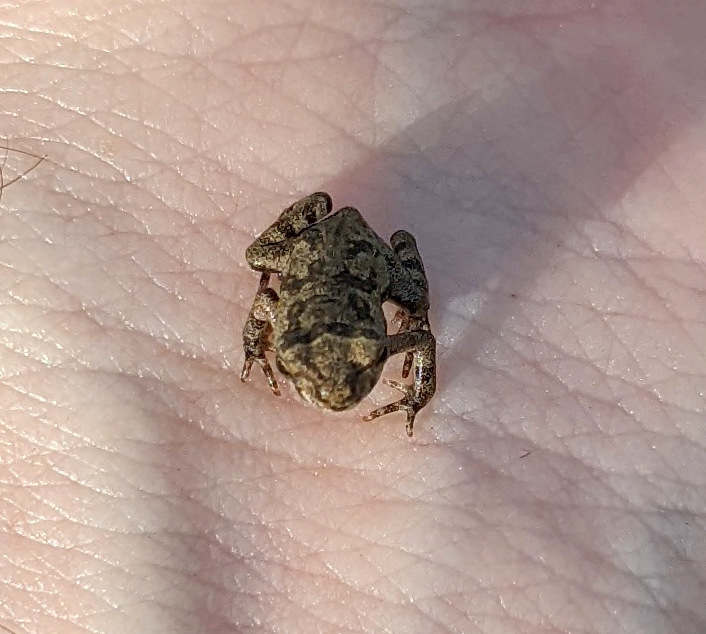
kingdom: Animalia
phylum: Chordata
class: Amphibia
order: Anura
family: Bufonidae
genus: Rhinella
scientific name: Rhinella marina
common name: Cane toad
